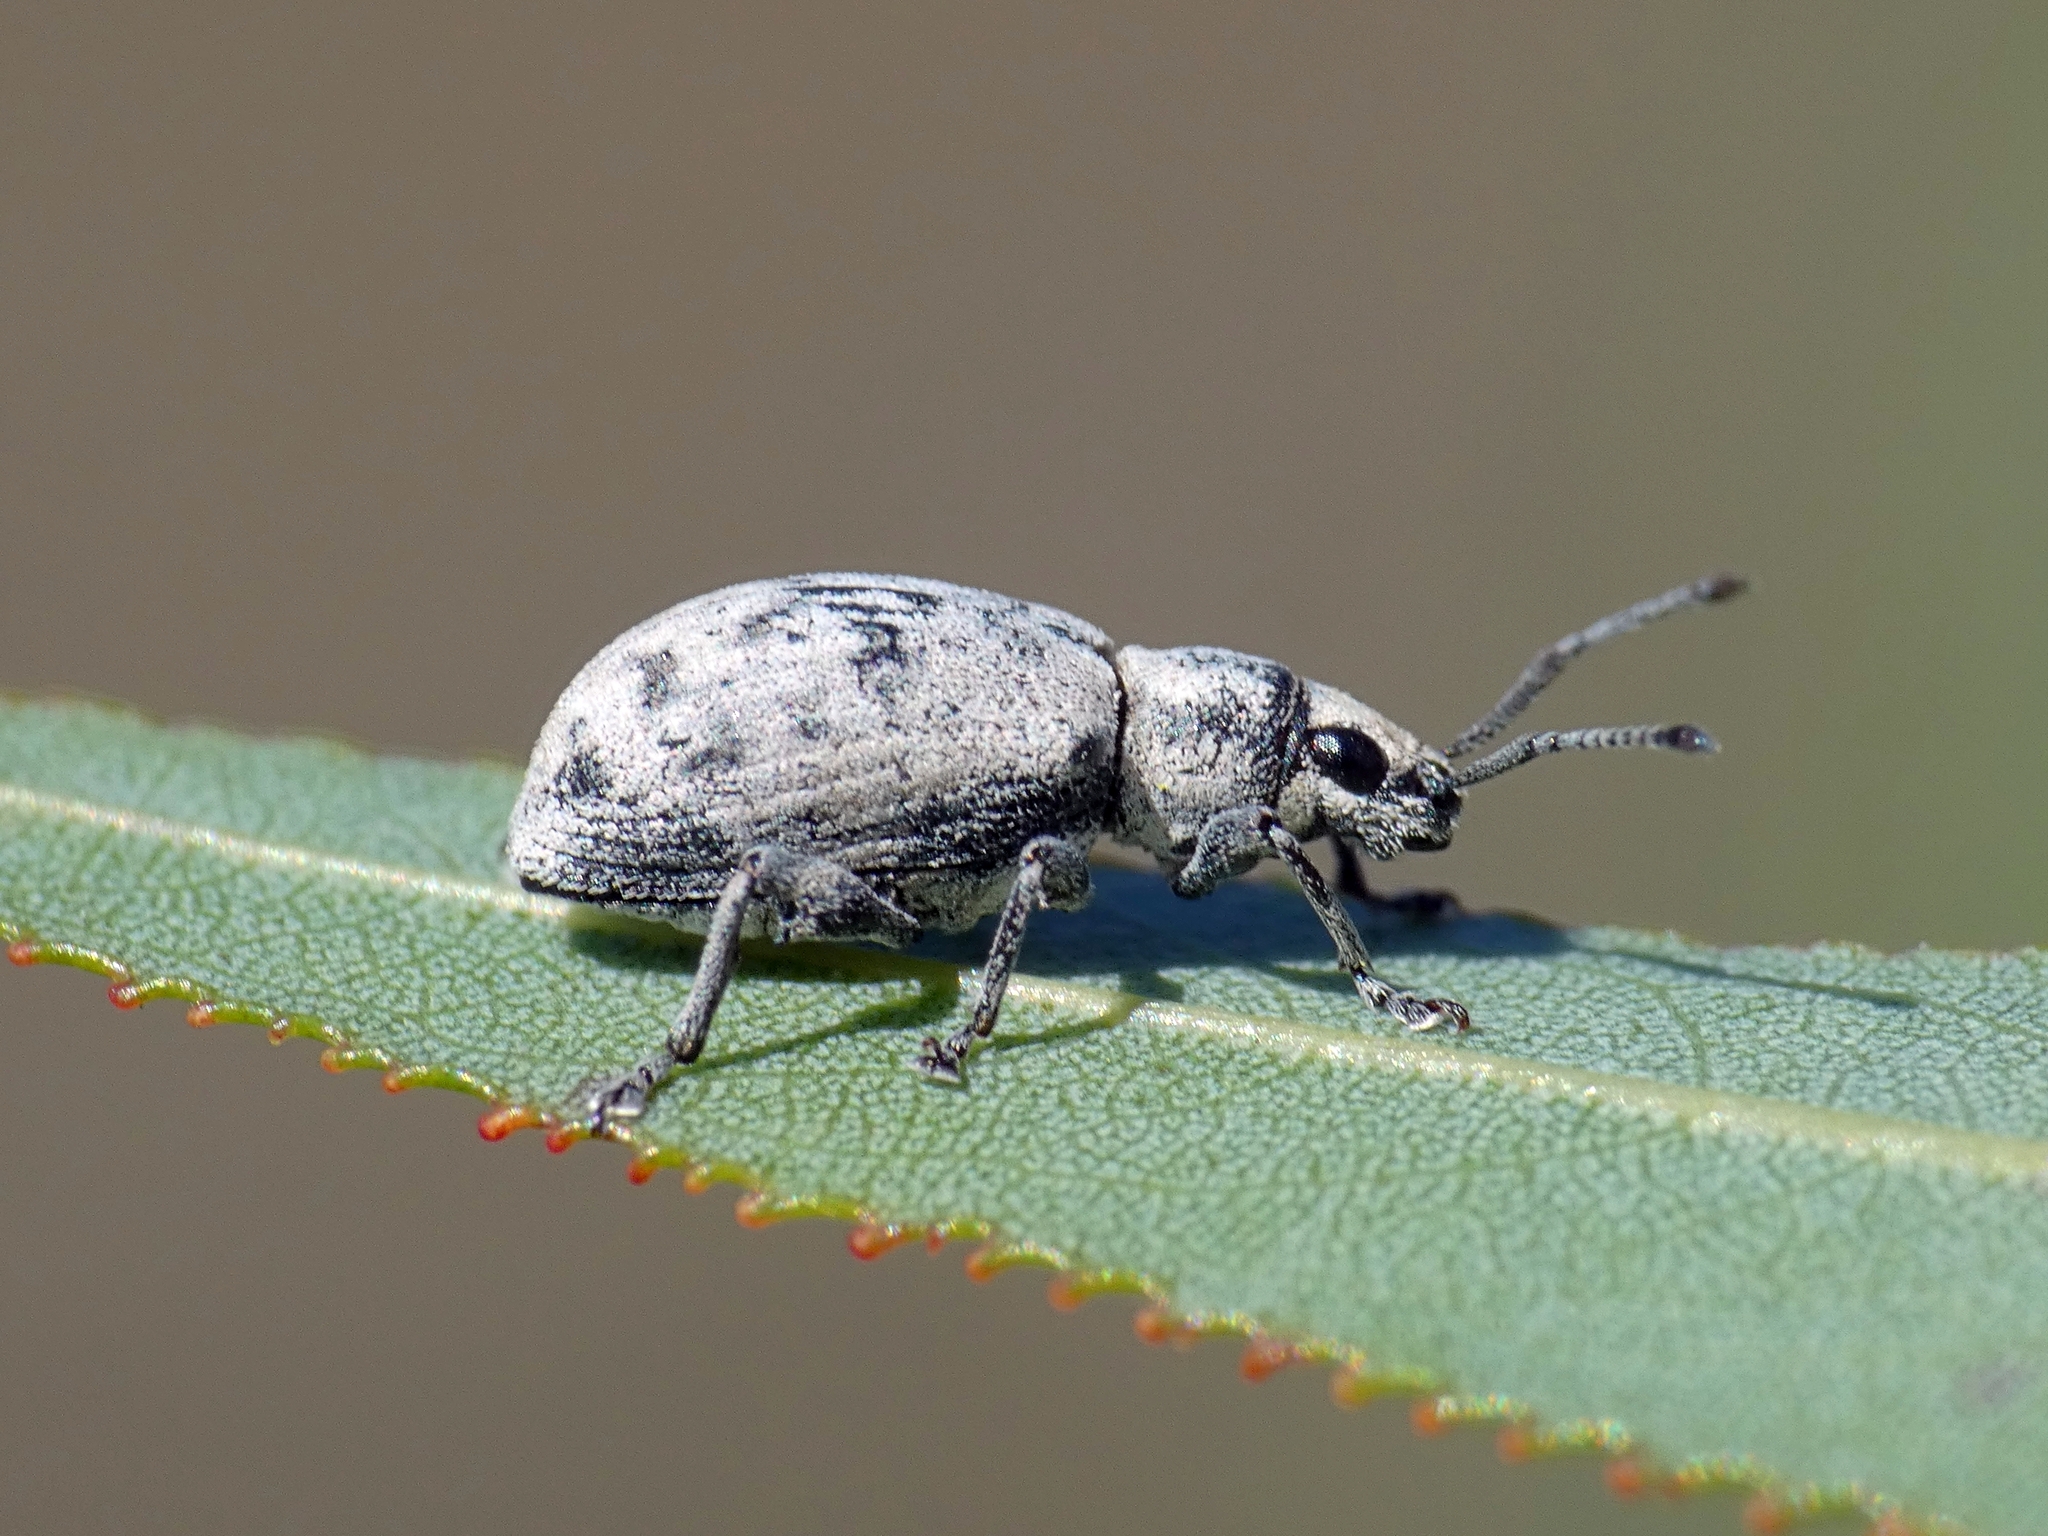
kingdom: Animalia
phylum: Arthropoda
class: Insecta
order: Coleoptera
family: Curculionidae
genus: Myllocerus
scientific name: Myllocerus undecimpustulatus
